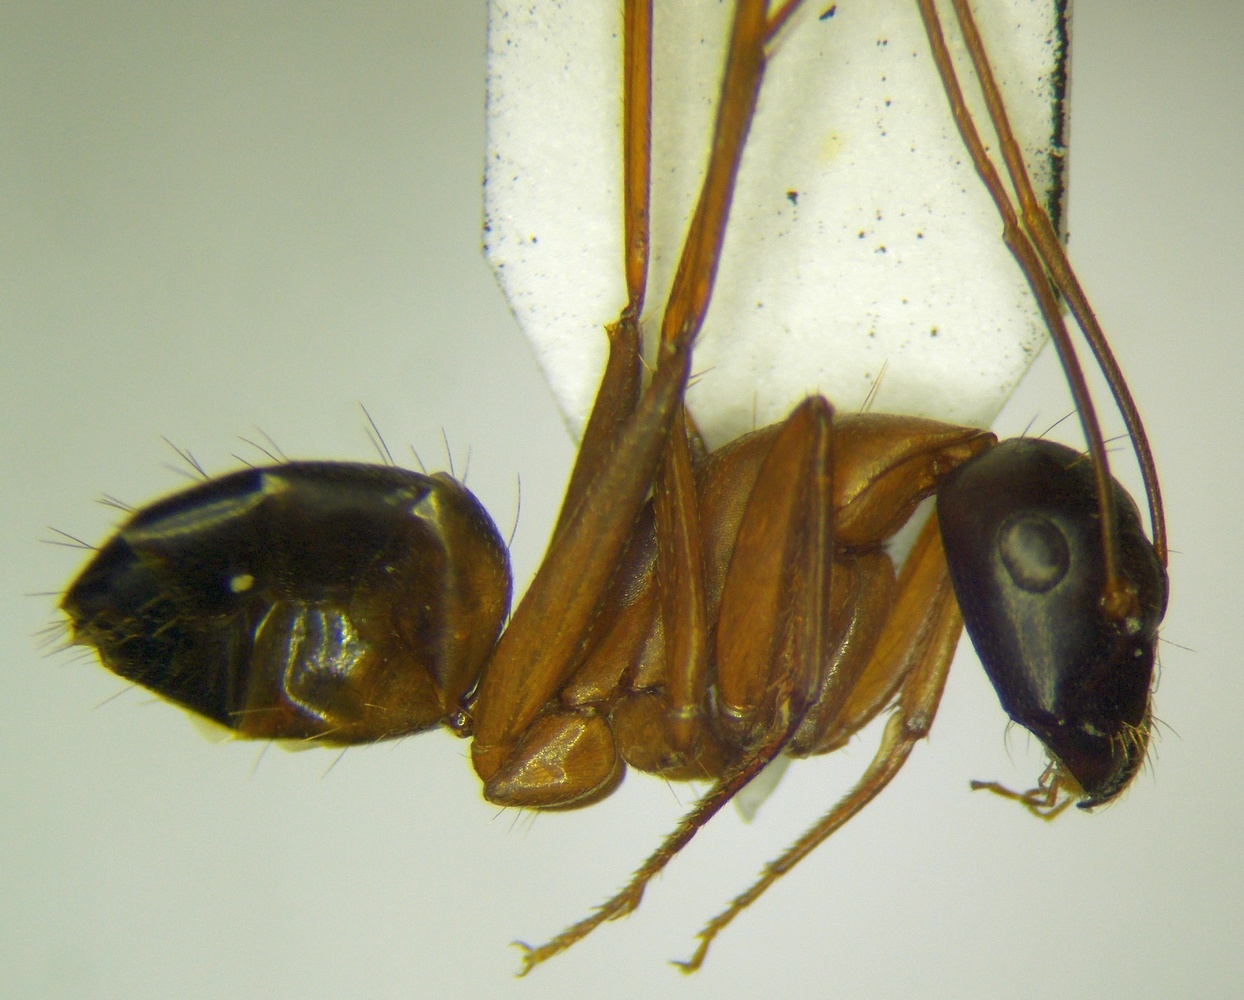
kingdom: Animalia
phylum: Arthropoda
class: Insecta
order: Hymenoptera
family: Formicidae
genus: Camponotus
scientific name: Camponotus sanctus
